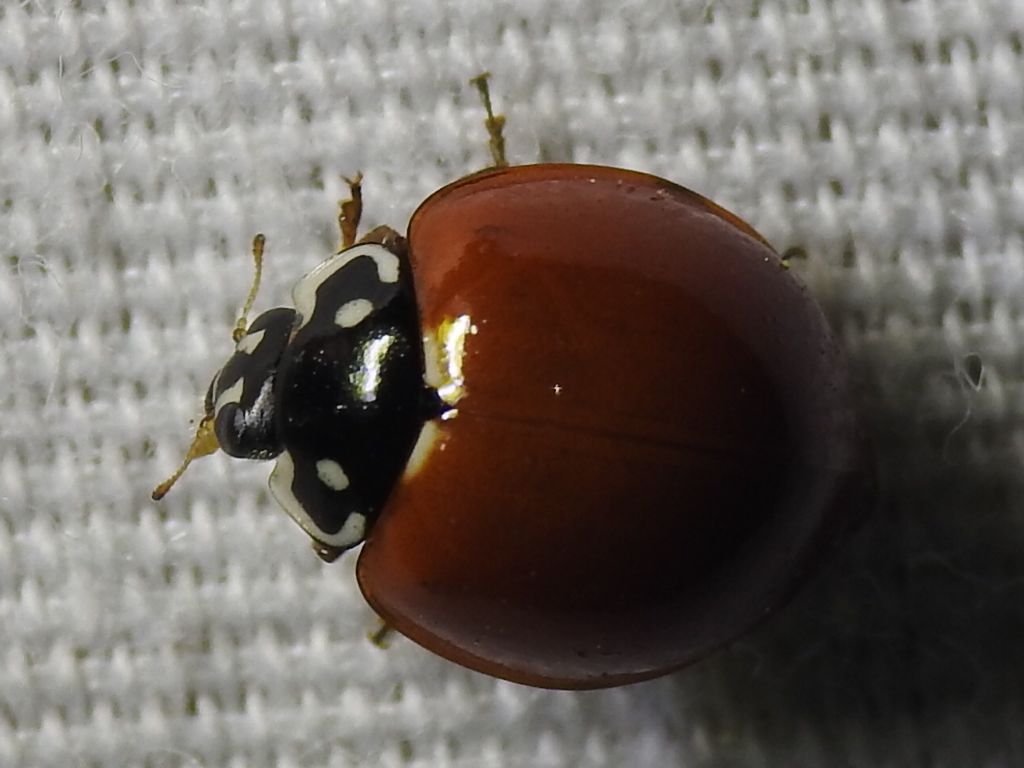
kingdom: Animalia
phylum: Arthropoda
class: Insecta
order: Coleoptera
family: Coccinellidae
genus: Cycloneda
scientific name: Cycloneda sanguinea
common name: Ladybird beetle
